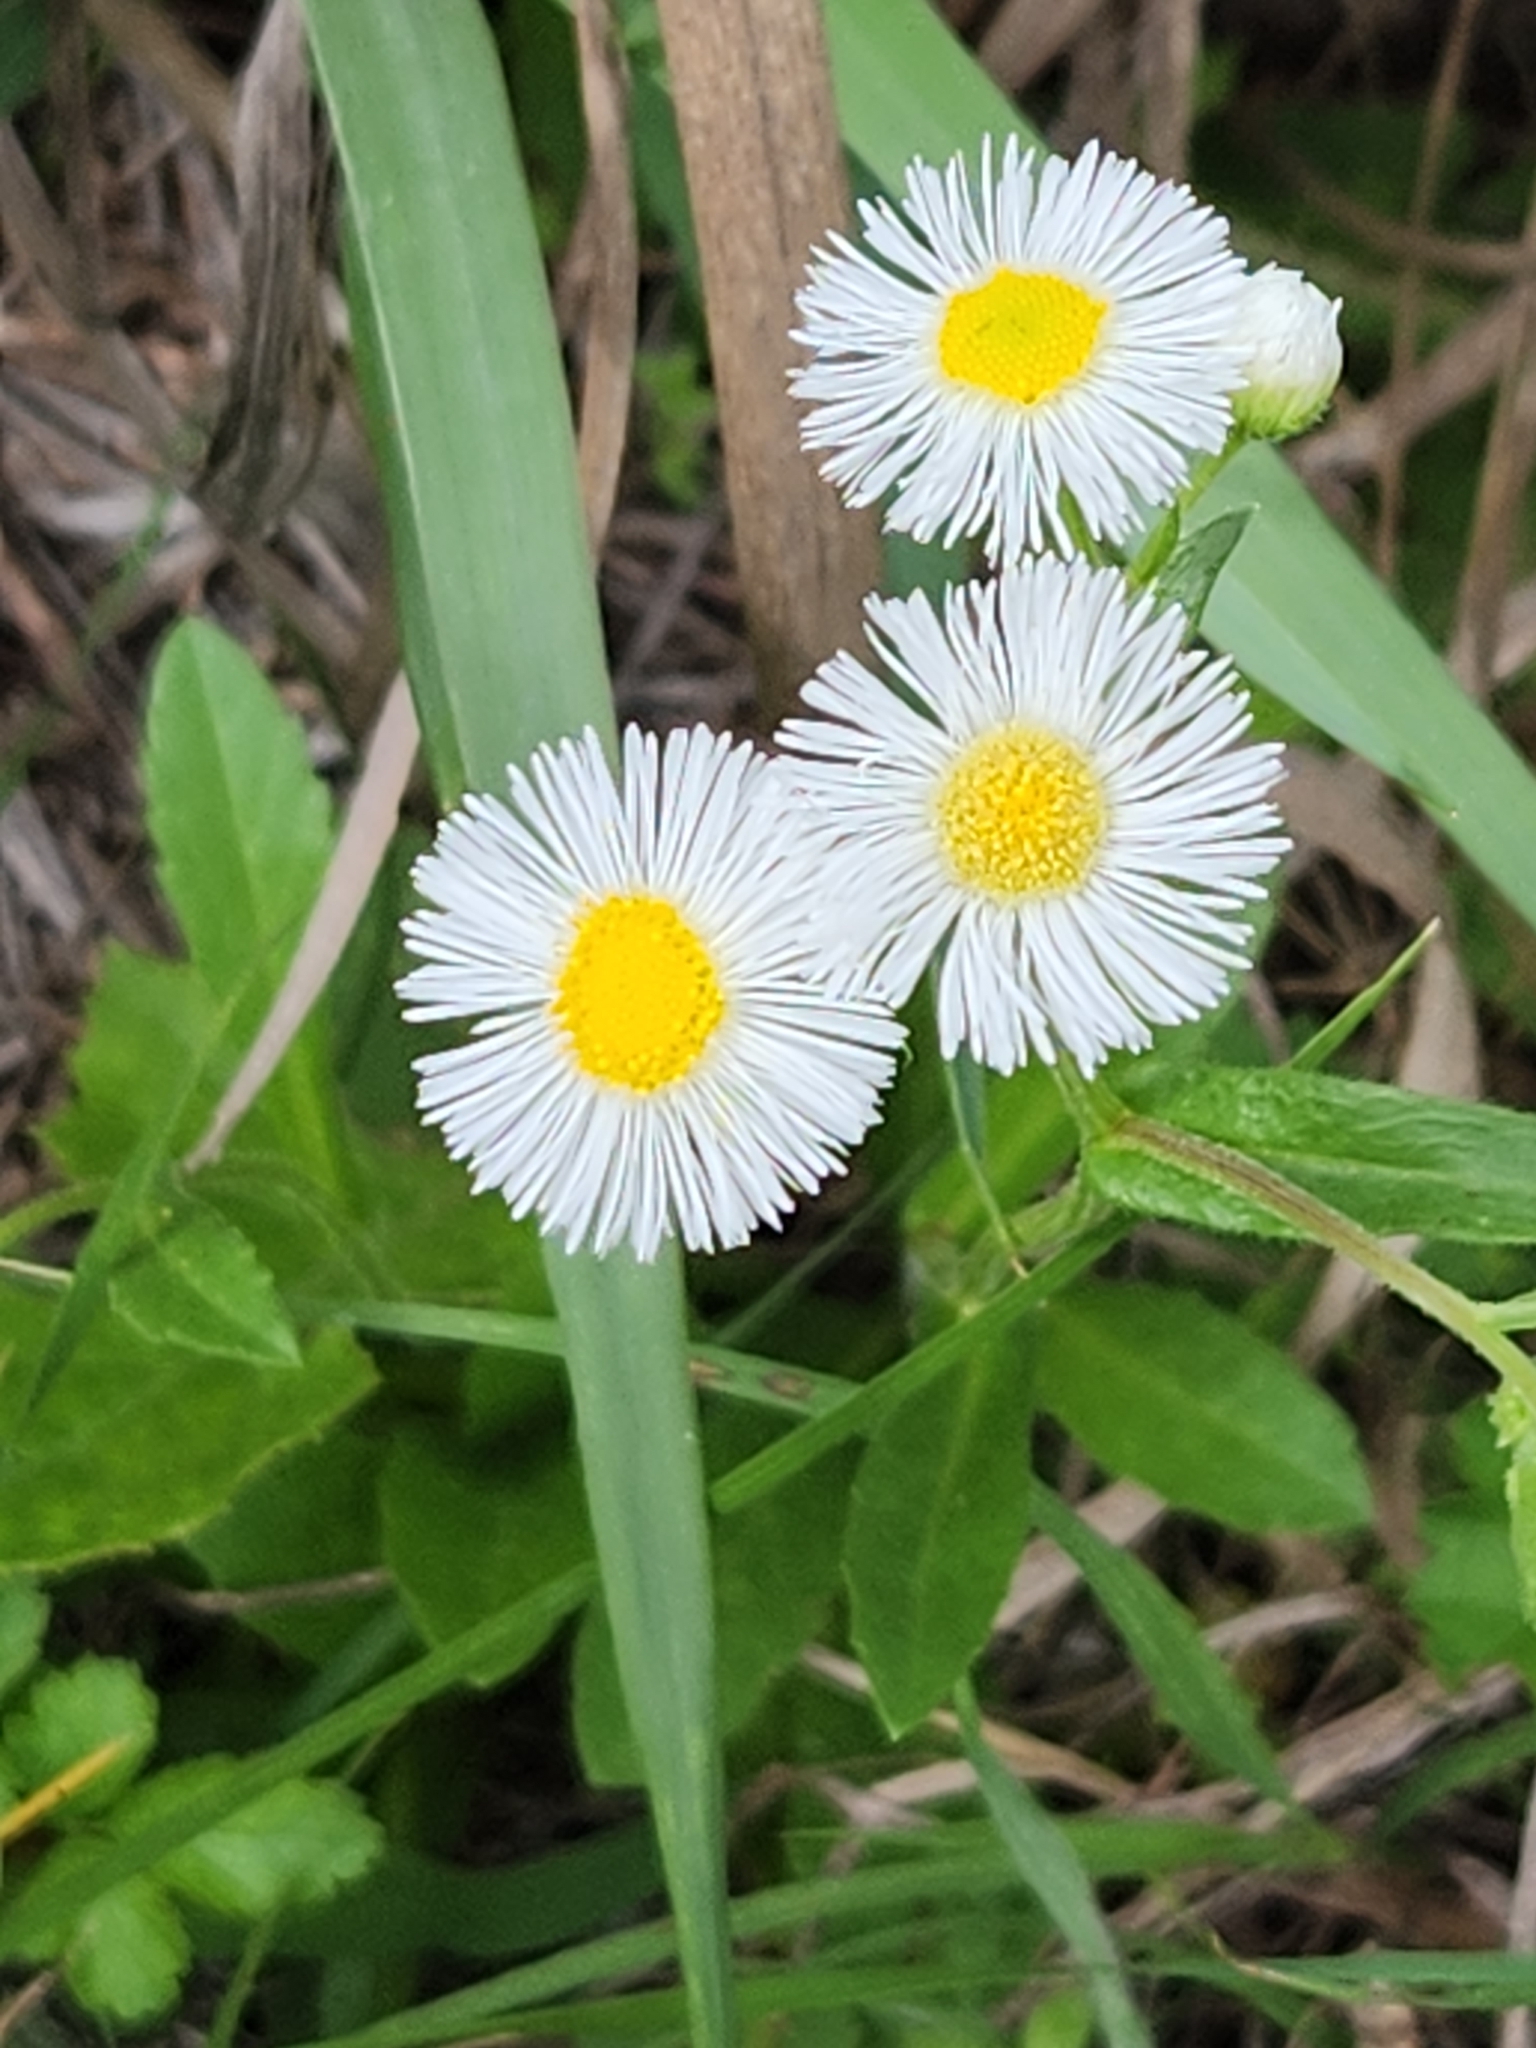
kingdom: Plantae
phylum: Tracheophyta
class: Magnoliopsida
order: Asterales
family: Asteraceae
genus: Erigeron
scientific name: Erigeron strigosus
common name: Common eastern fleabane
